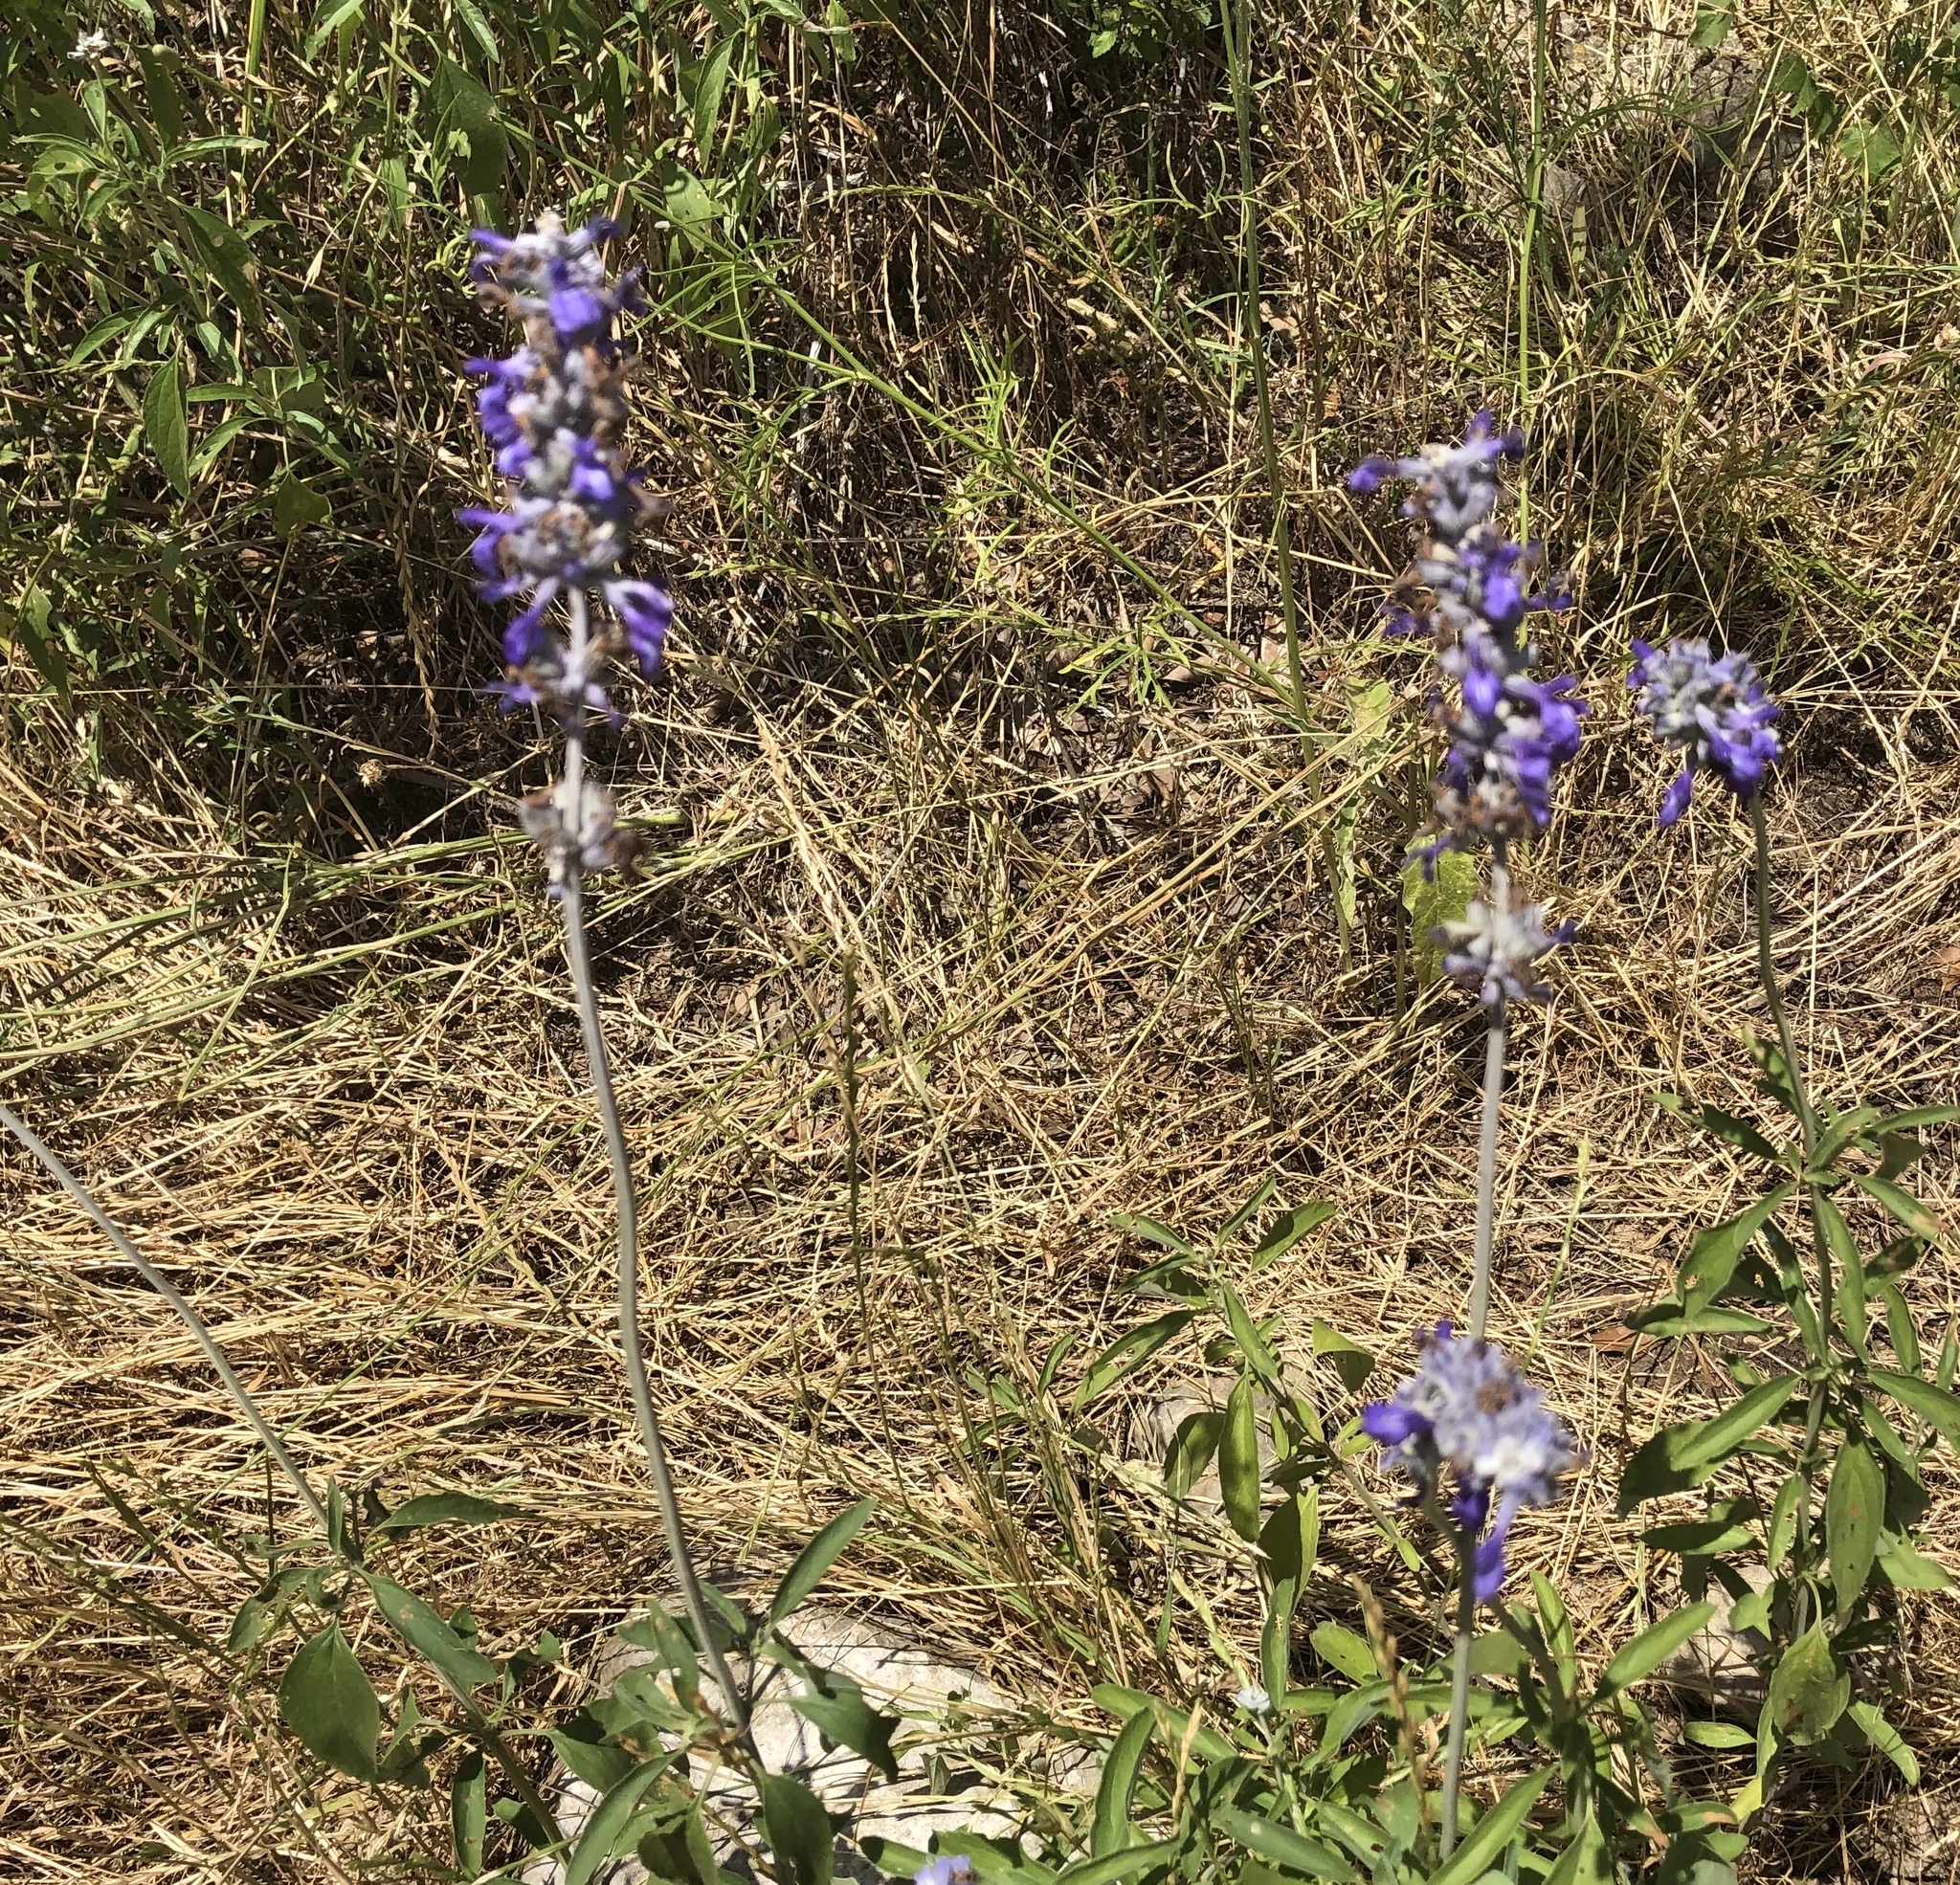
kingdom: Plantae
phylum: Tracheophyta
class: Magnoliopsida
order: Lamiales
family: Lamiaceae
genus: Salvia
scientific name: Salvia farinacea
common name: Mealy sage
